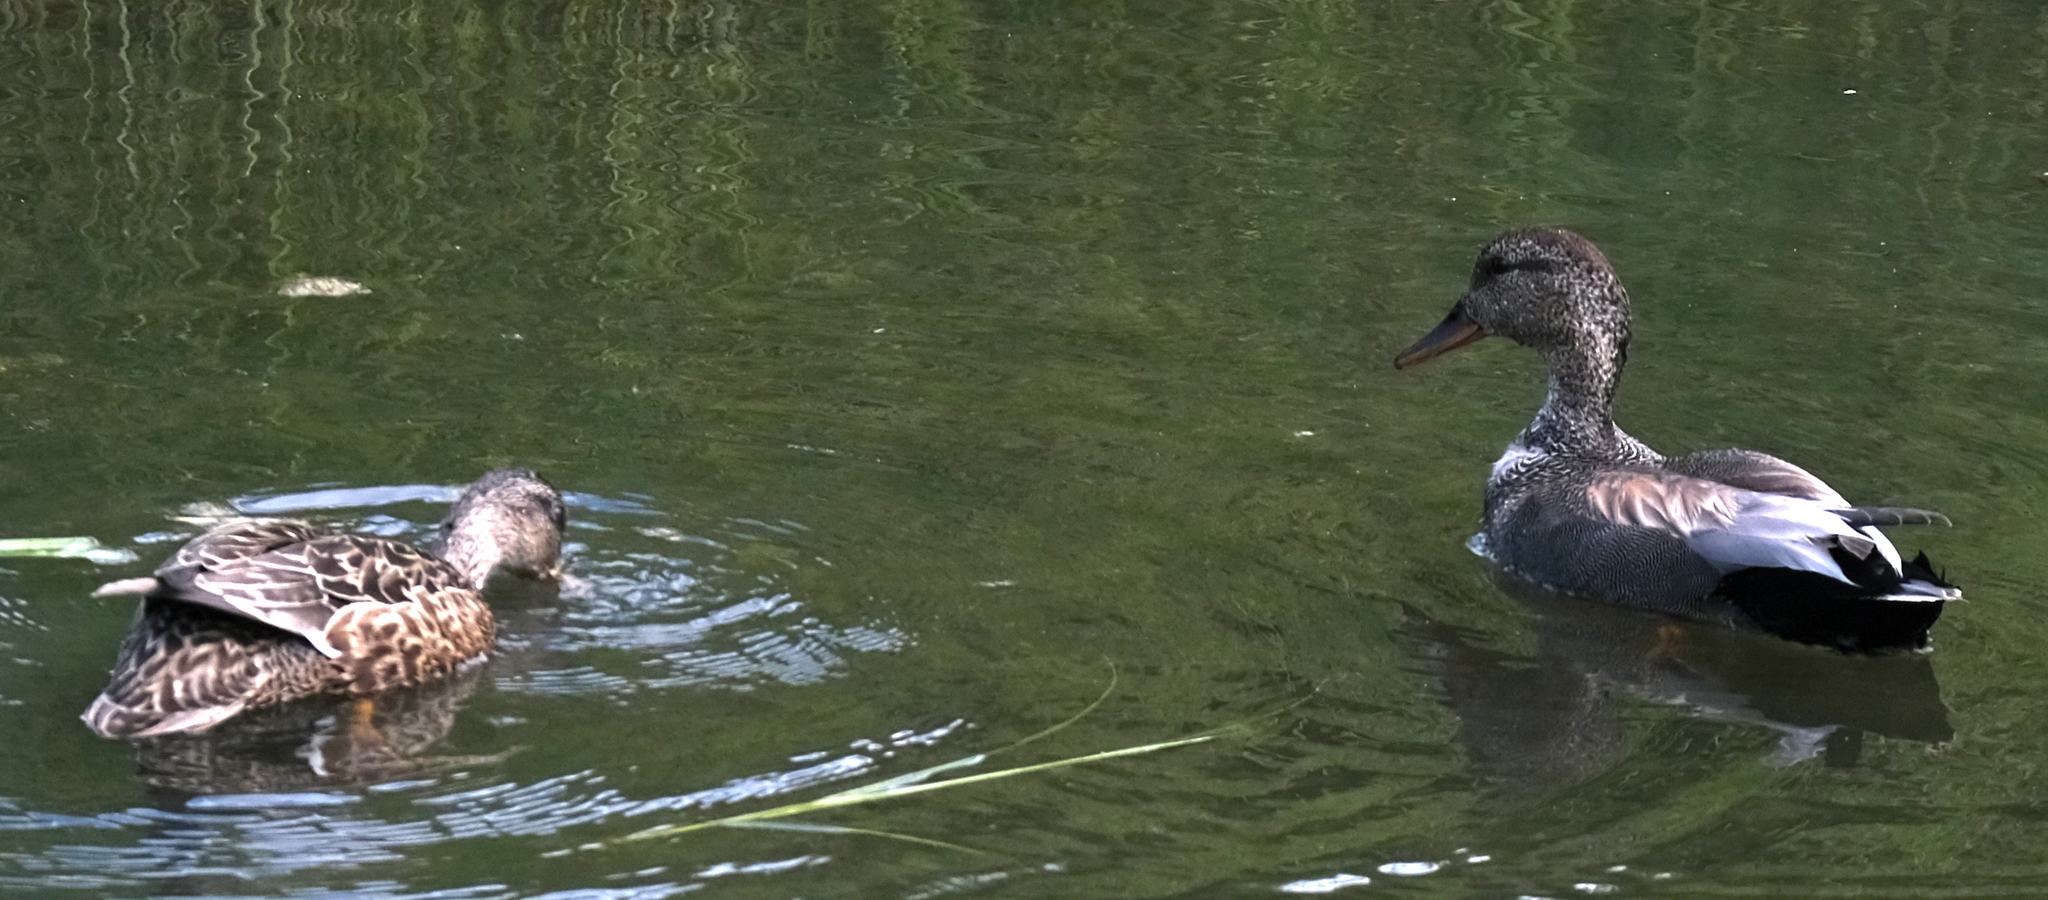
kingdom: Animalia
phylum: Chordata
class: Aves
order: Anseriformes
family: Anatidae
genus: Mareca
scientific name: Mareca strepera
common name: Gadwall
